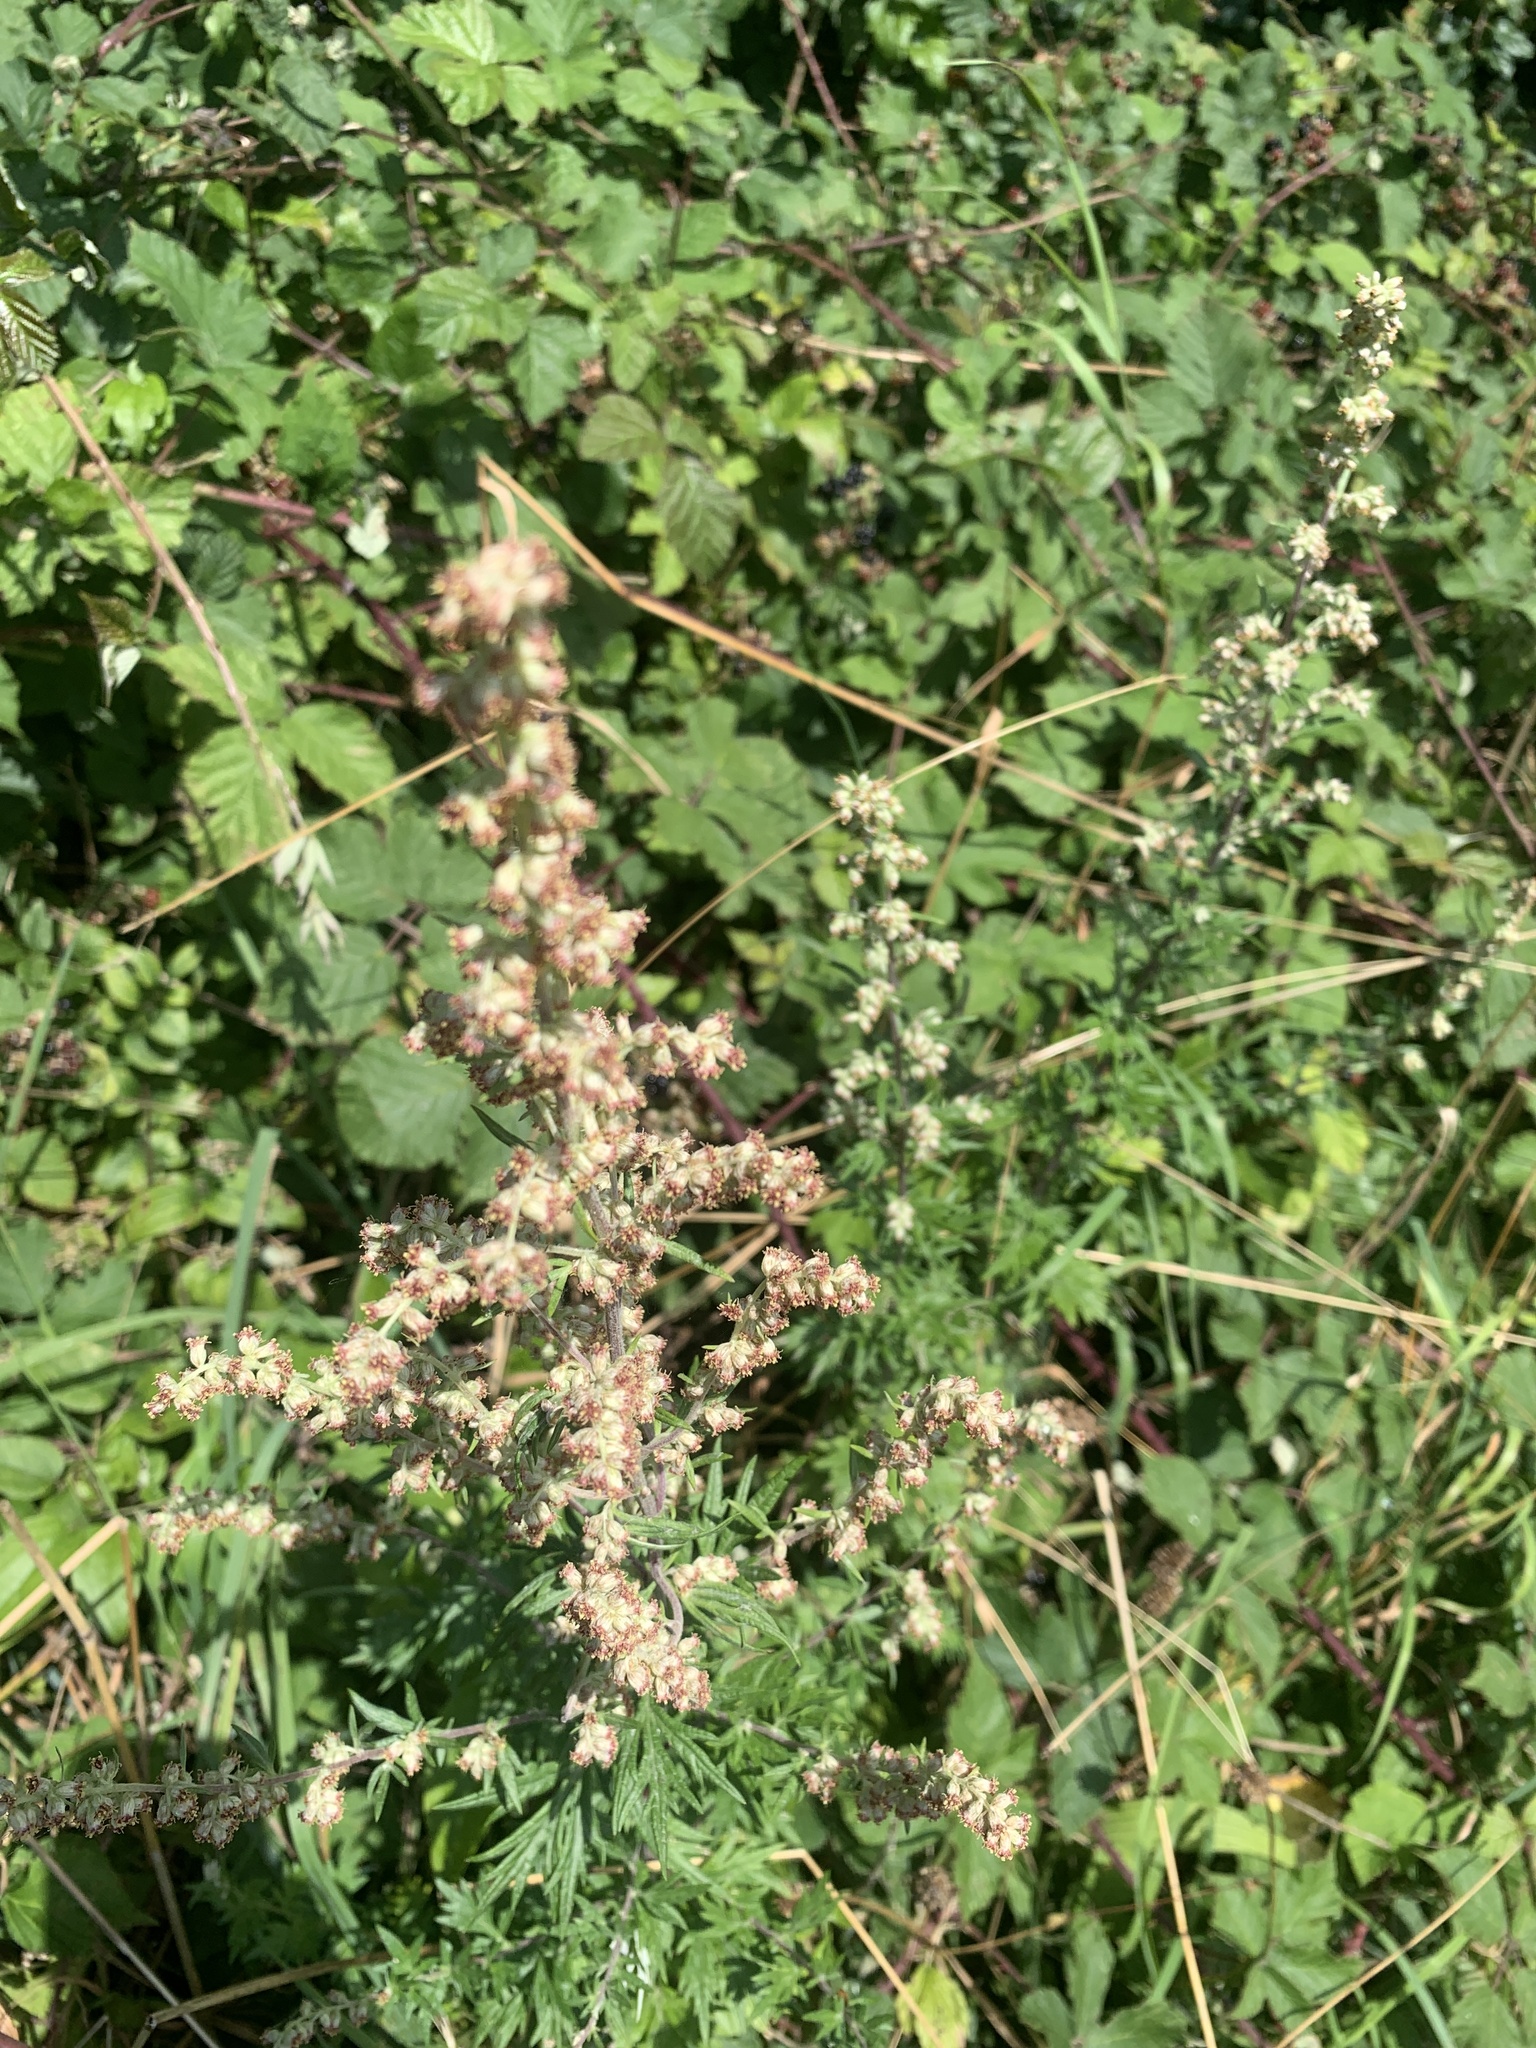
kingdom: Plantae
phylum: Tracheophyta
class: Magnoliopsida
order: Asterales
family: Asteraceae
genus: Artemisia
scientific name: Artemisia vulgaris
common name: Mugwort
